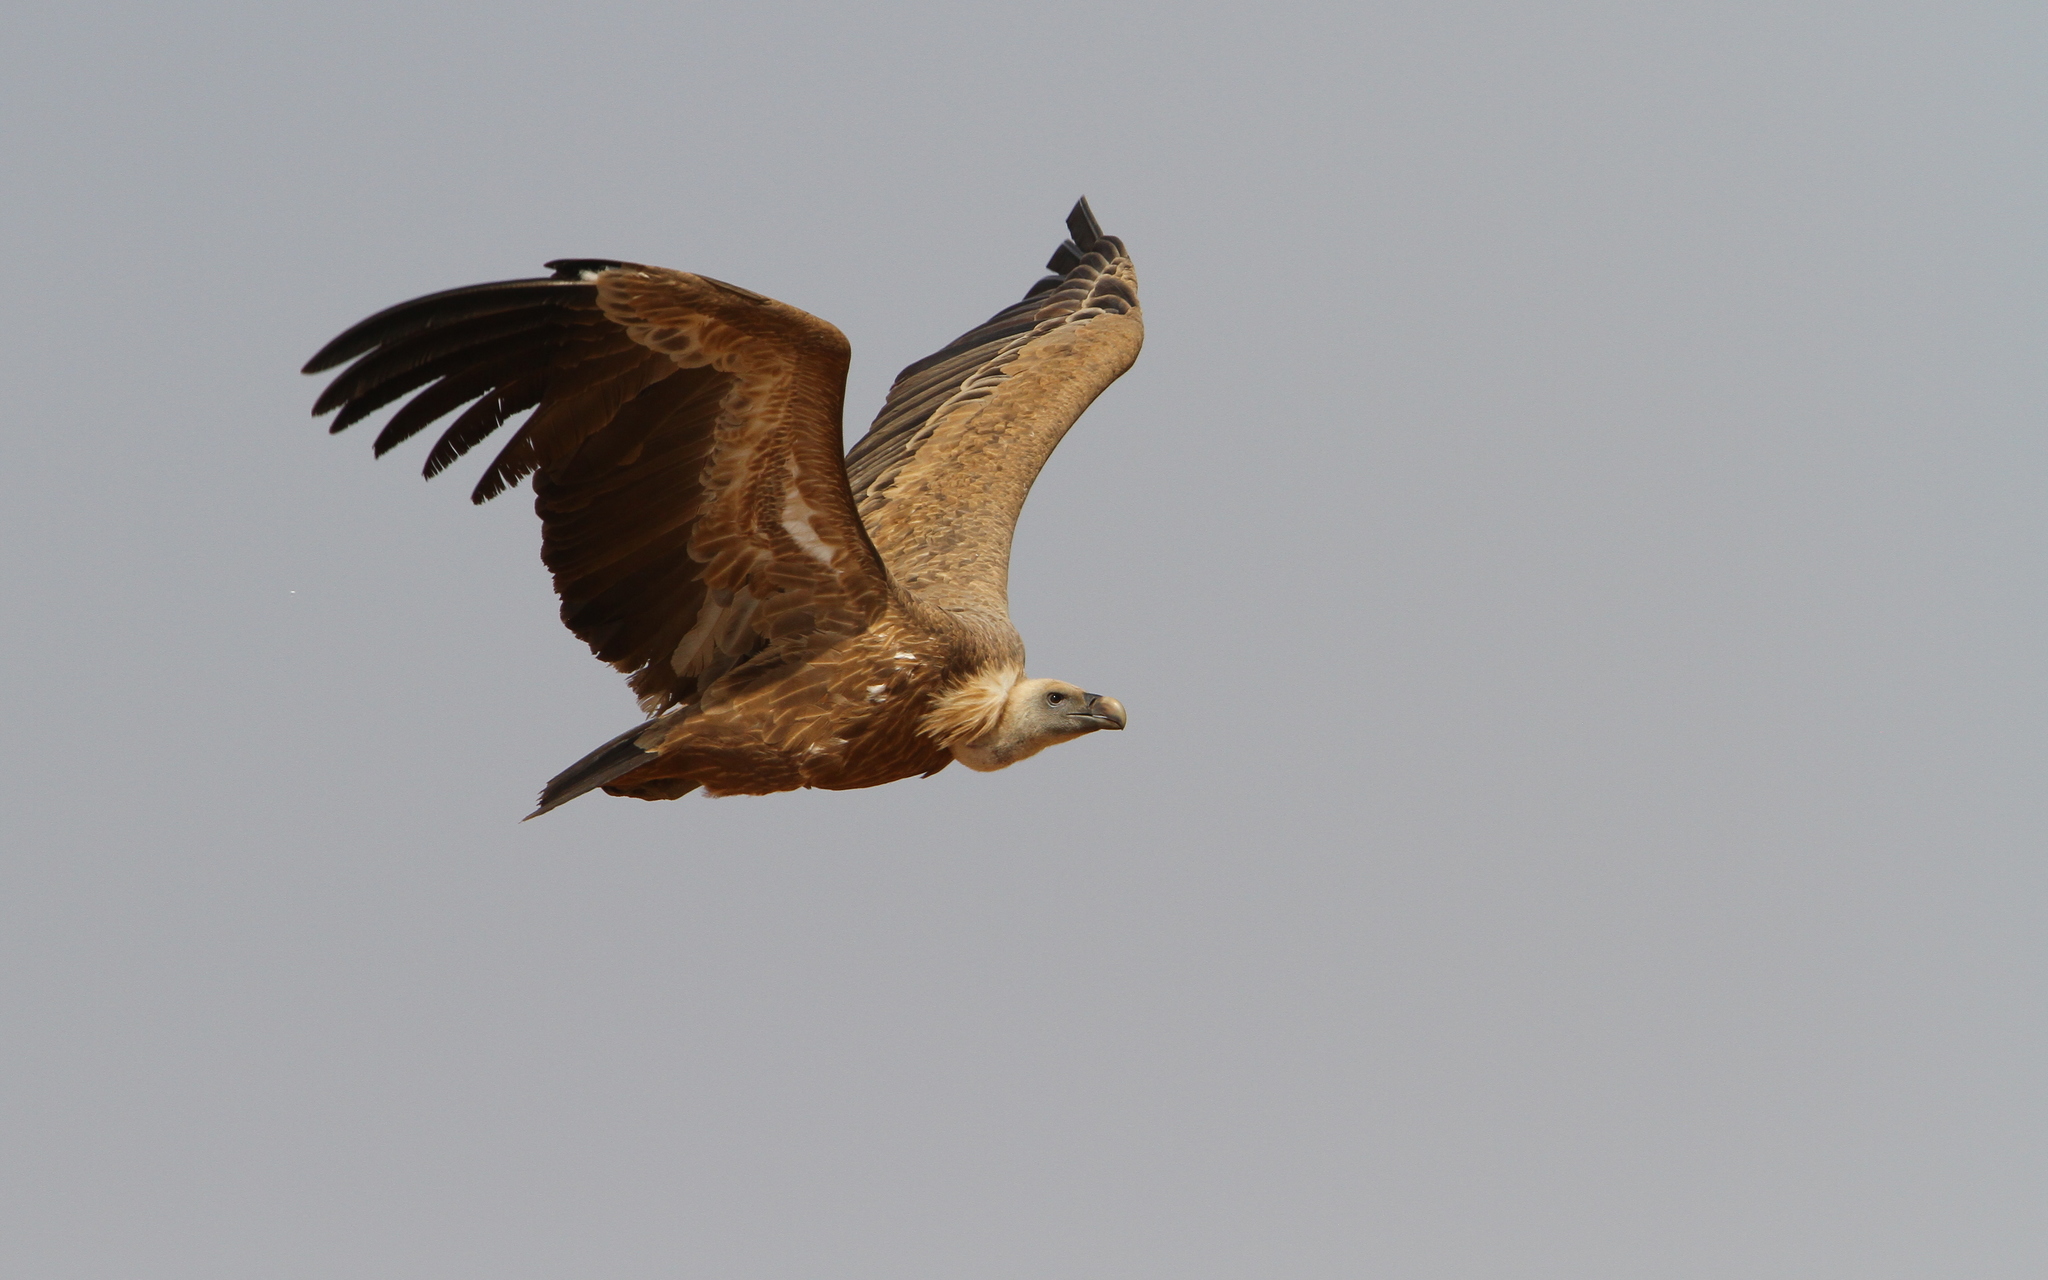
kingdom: Animalia
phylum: Chordata
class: Aves
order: Accipitriformes
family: Accipitridae
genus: Gyps
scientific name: Gyps fulvus
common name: Griffon vulture
